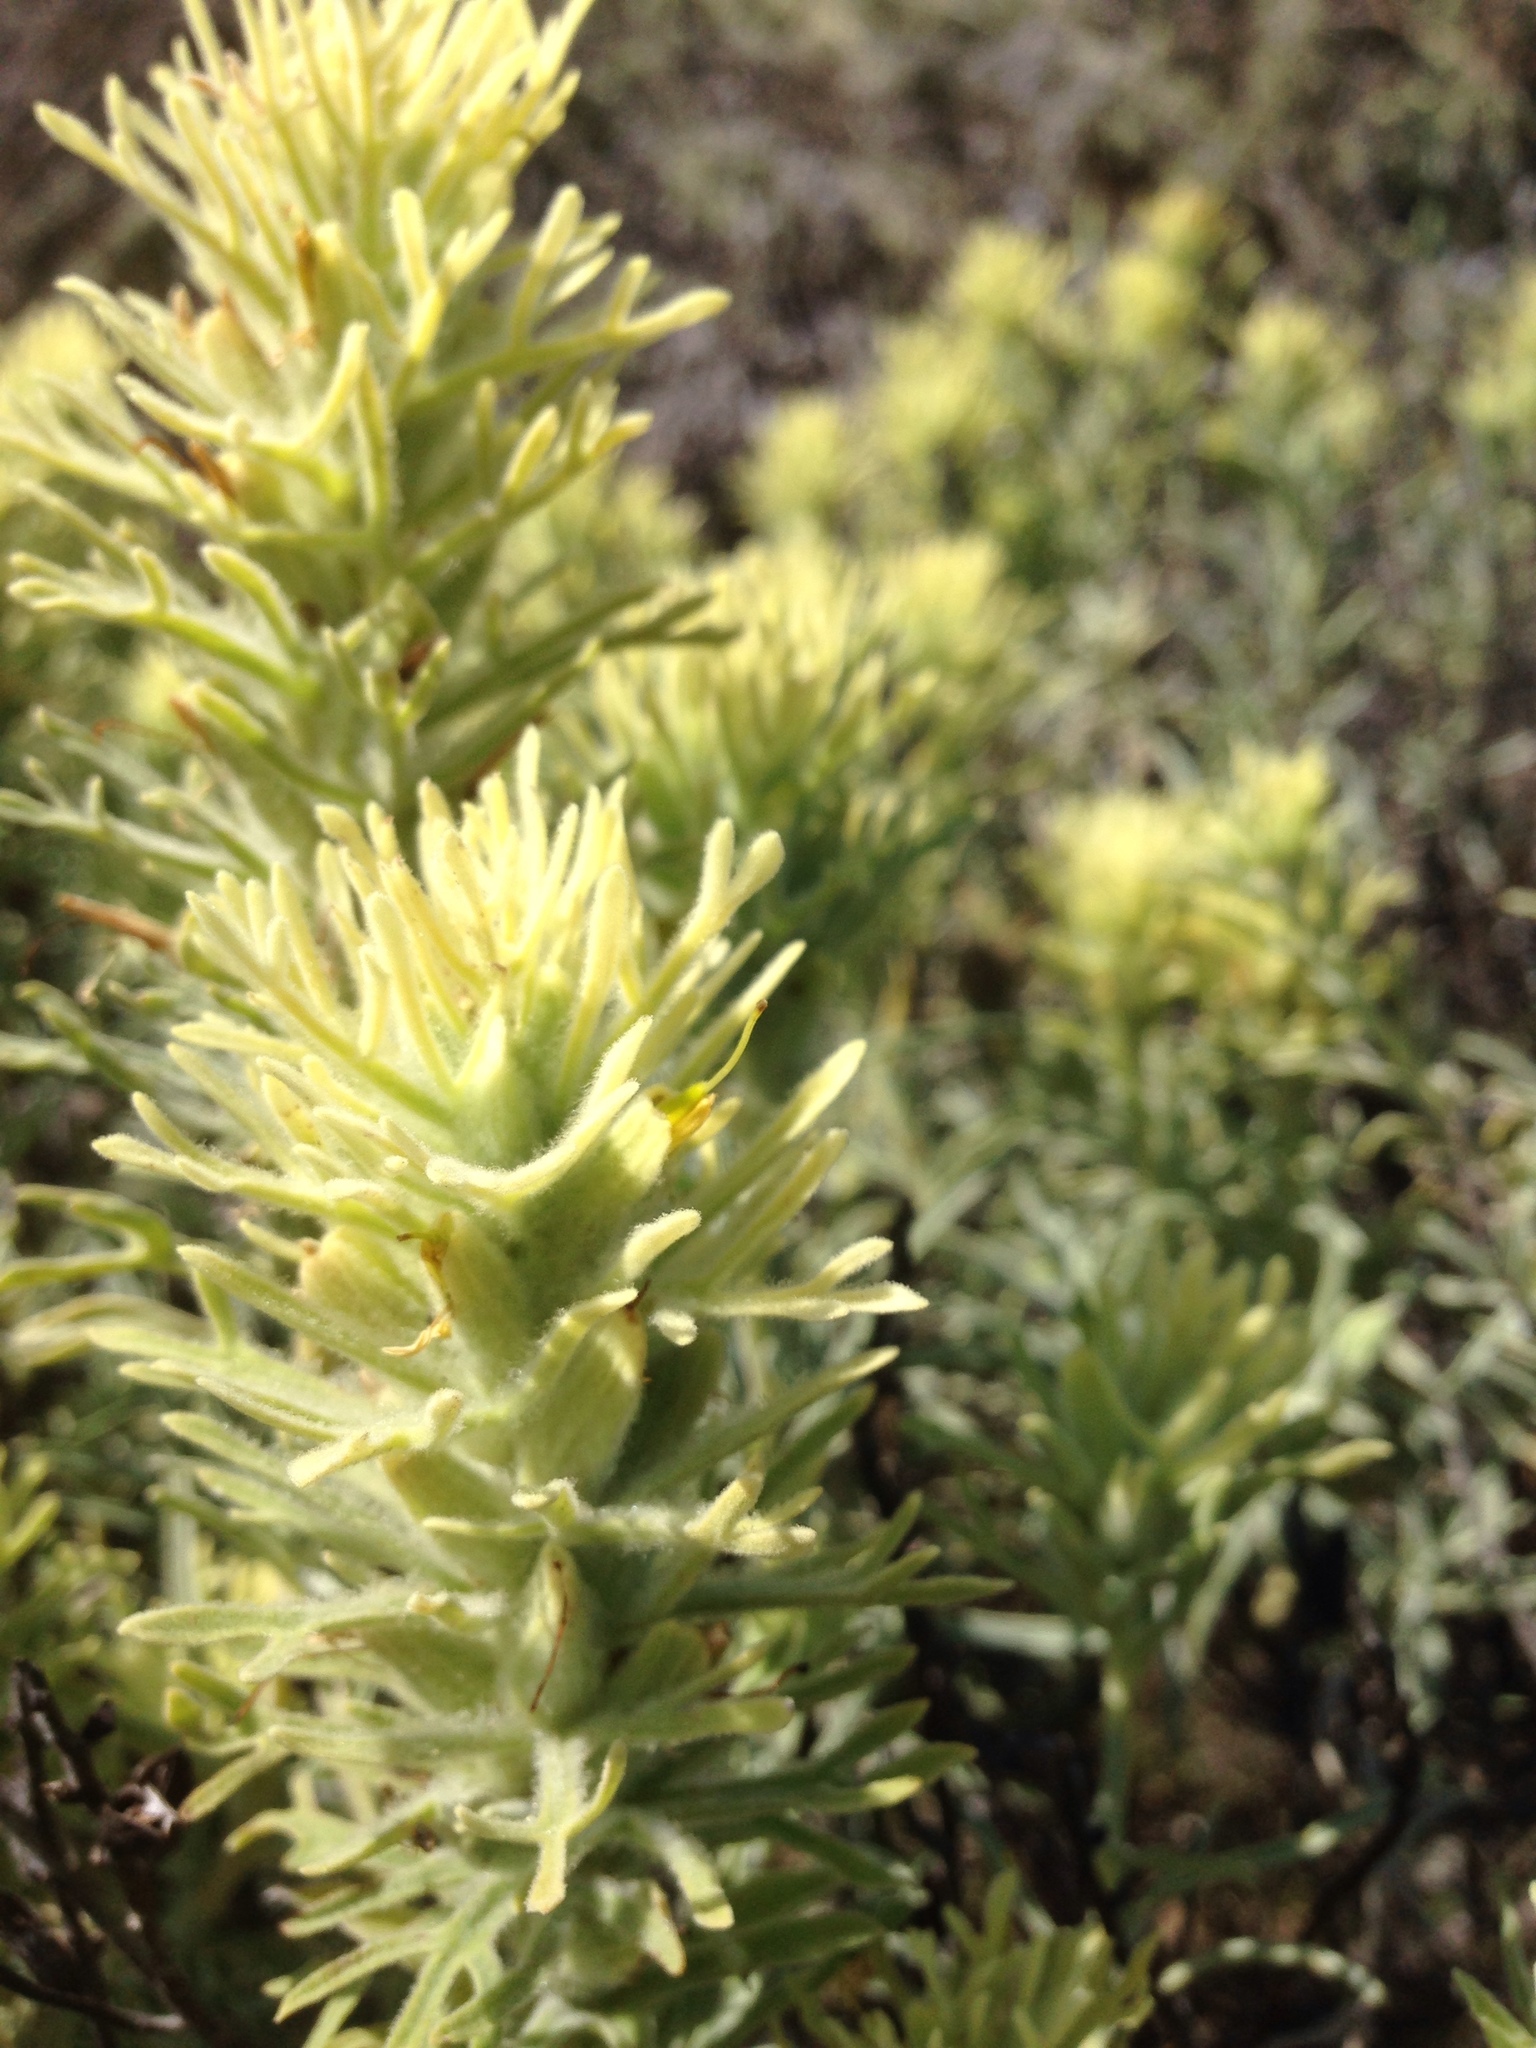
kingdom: Plantae
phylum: Tracheophyta
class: Magnoliopsida
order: Lamiales
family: Orobanchaceae
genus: Castilleja
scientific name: Castilleja grisea
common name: San clemente island indian paintbrush
